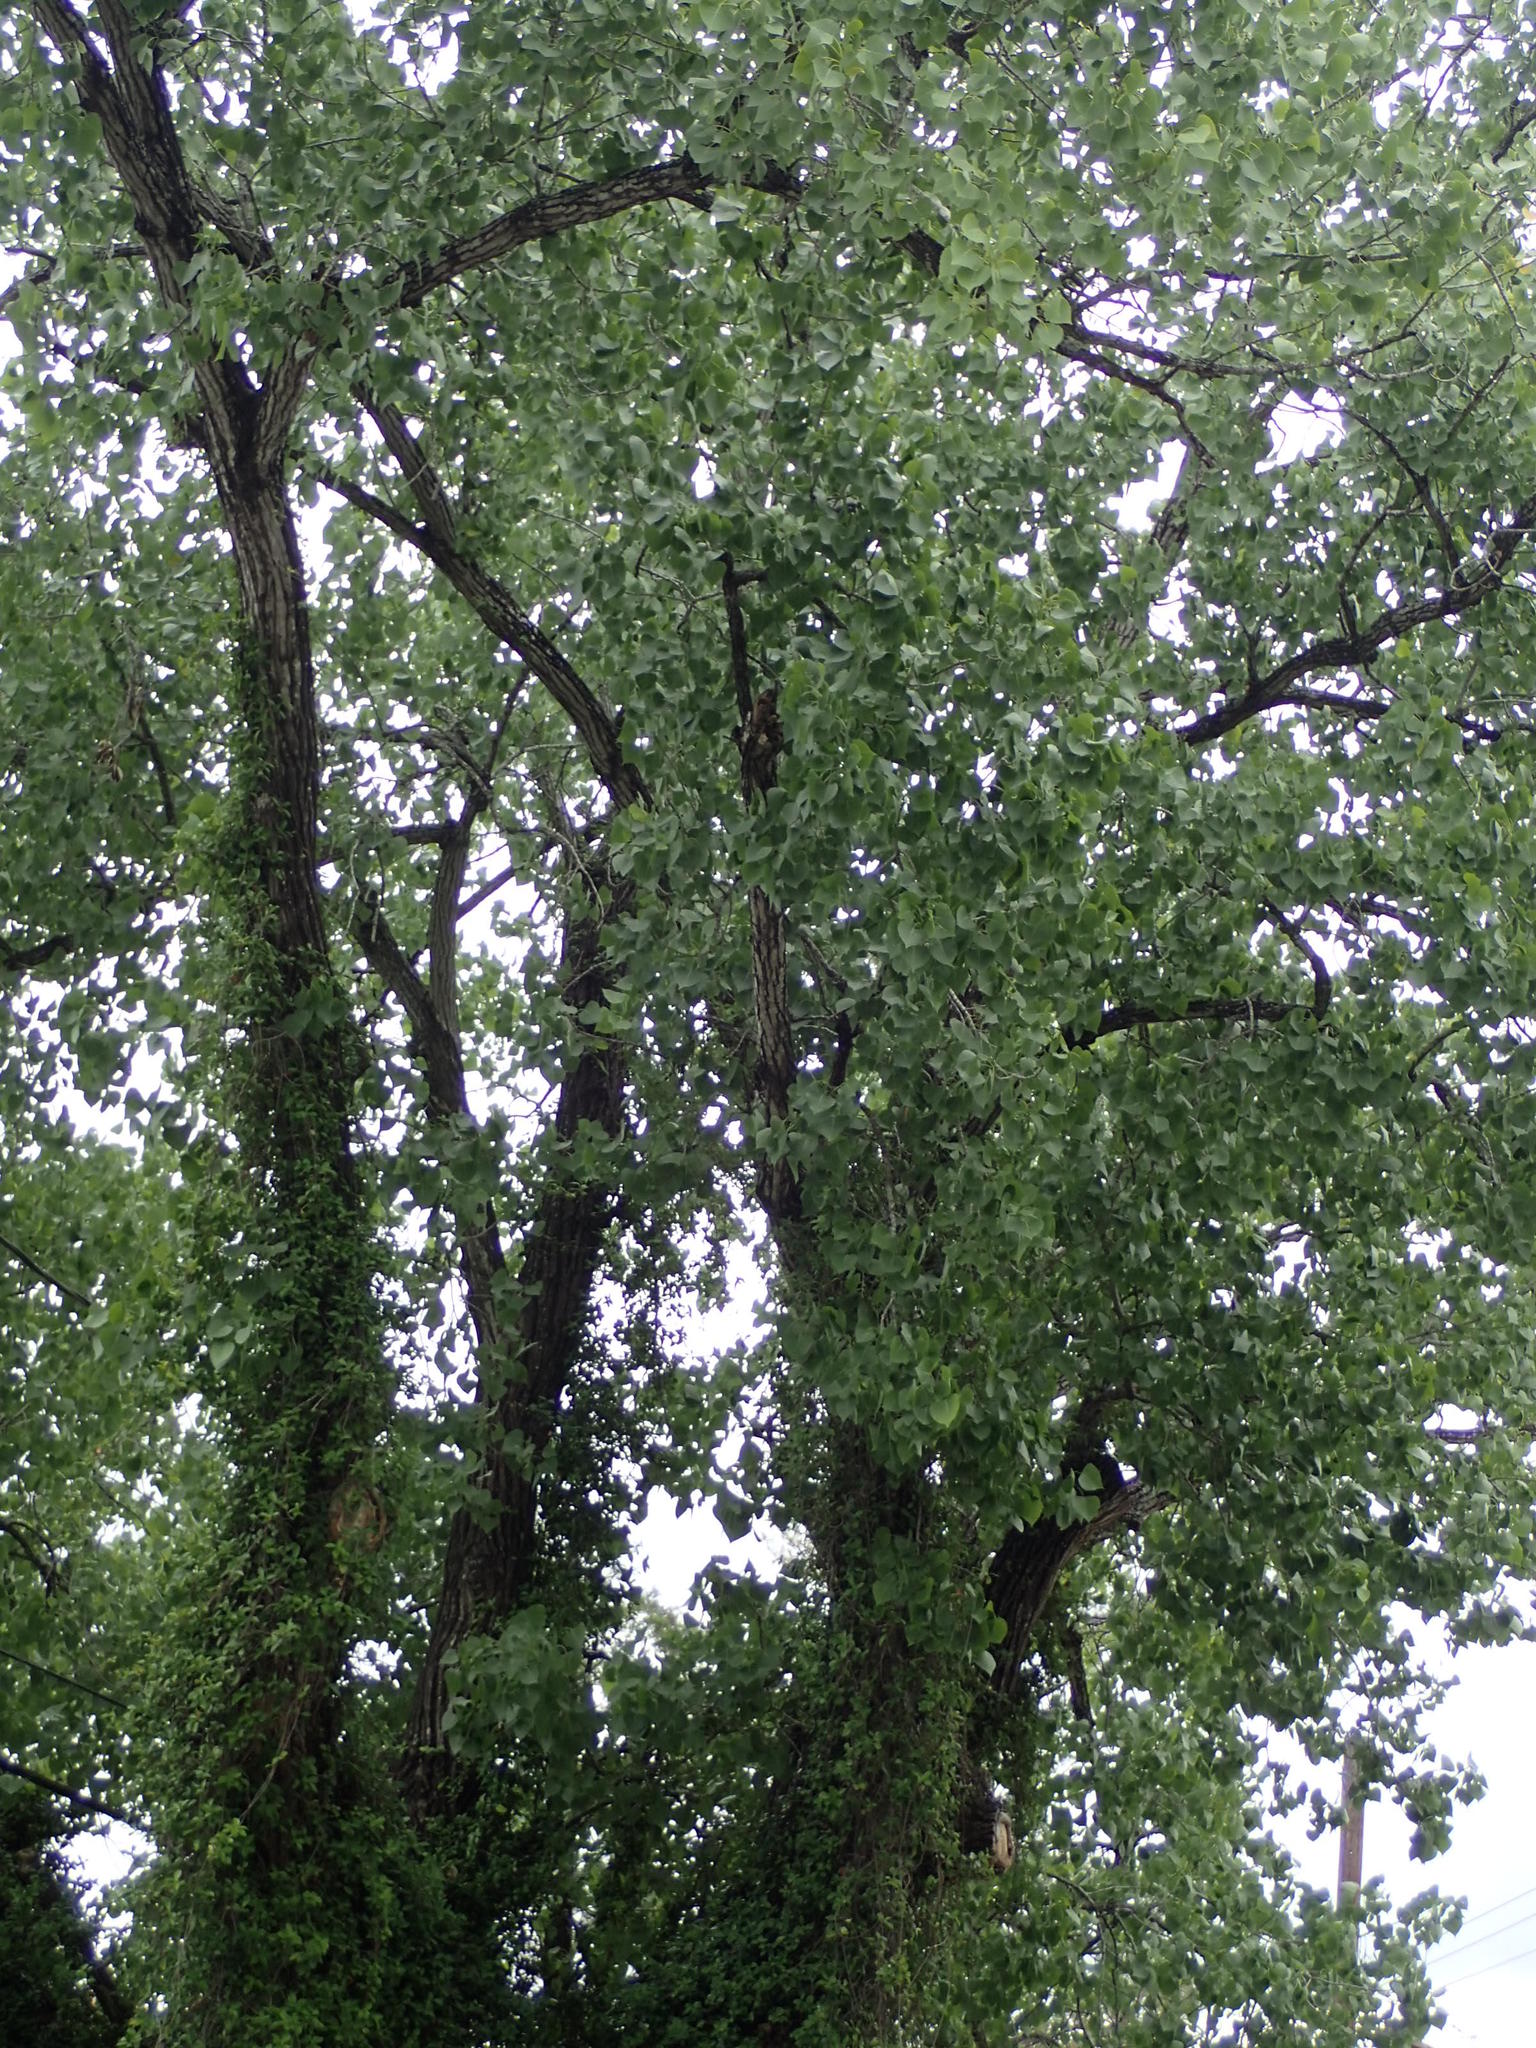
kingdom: Plantae
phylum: Tracheophyta
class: Magnoliopsida
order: Malpighiales
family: Euphorbiaceae
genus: Triadica
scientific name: Triadica sebifera
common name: Chinese tallow
